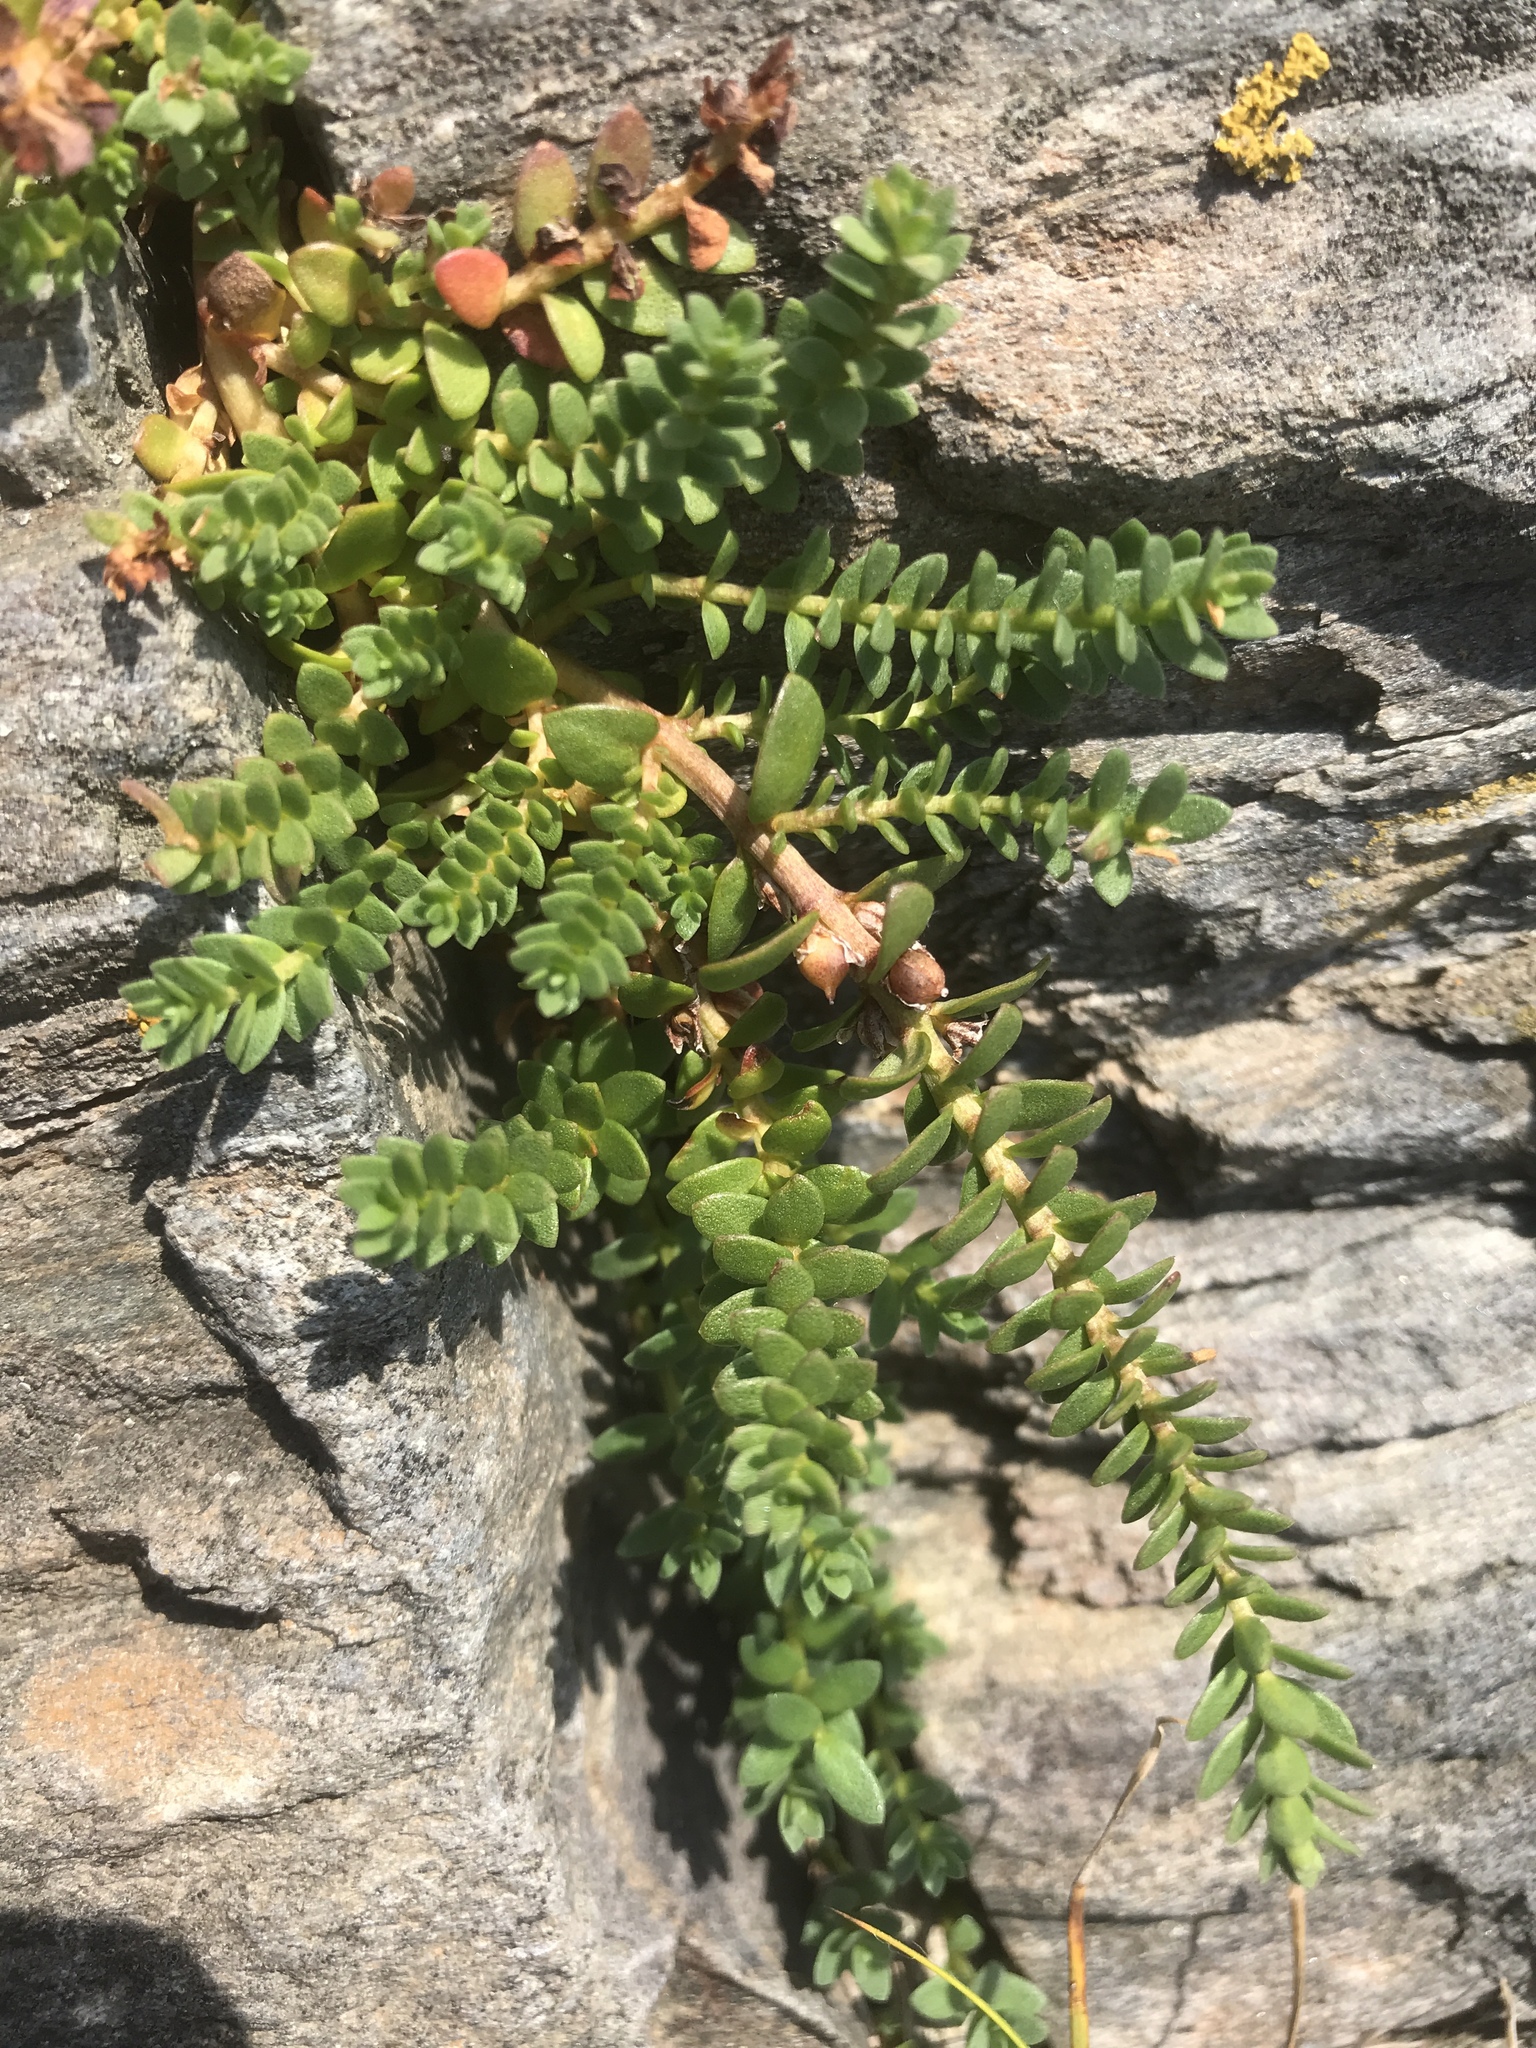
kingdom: Plantae
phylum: Tracheophyta
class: Magnoliopsida
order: Caryophyllales
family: Caryophyllaceae
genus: Honckenya
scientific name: Honckenya peploides
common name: Sea sandwort
